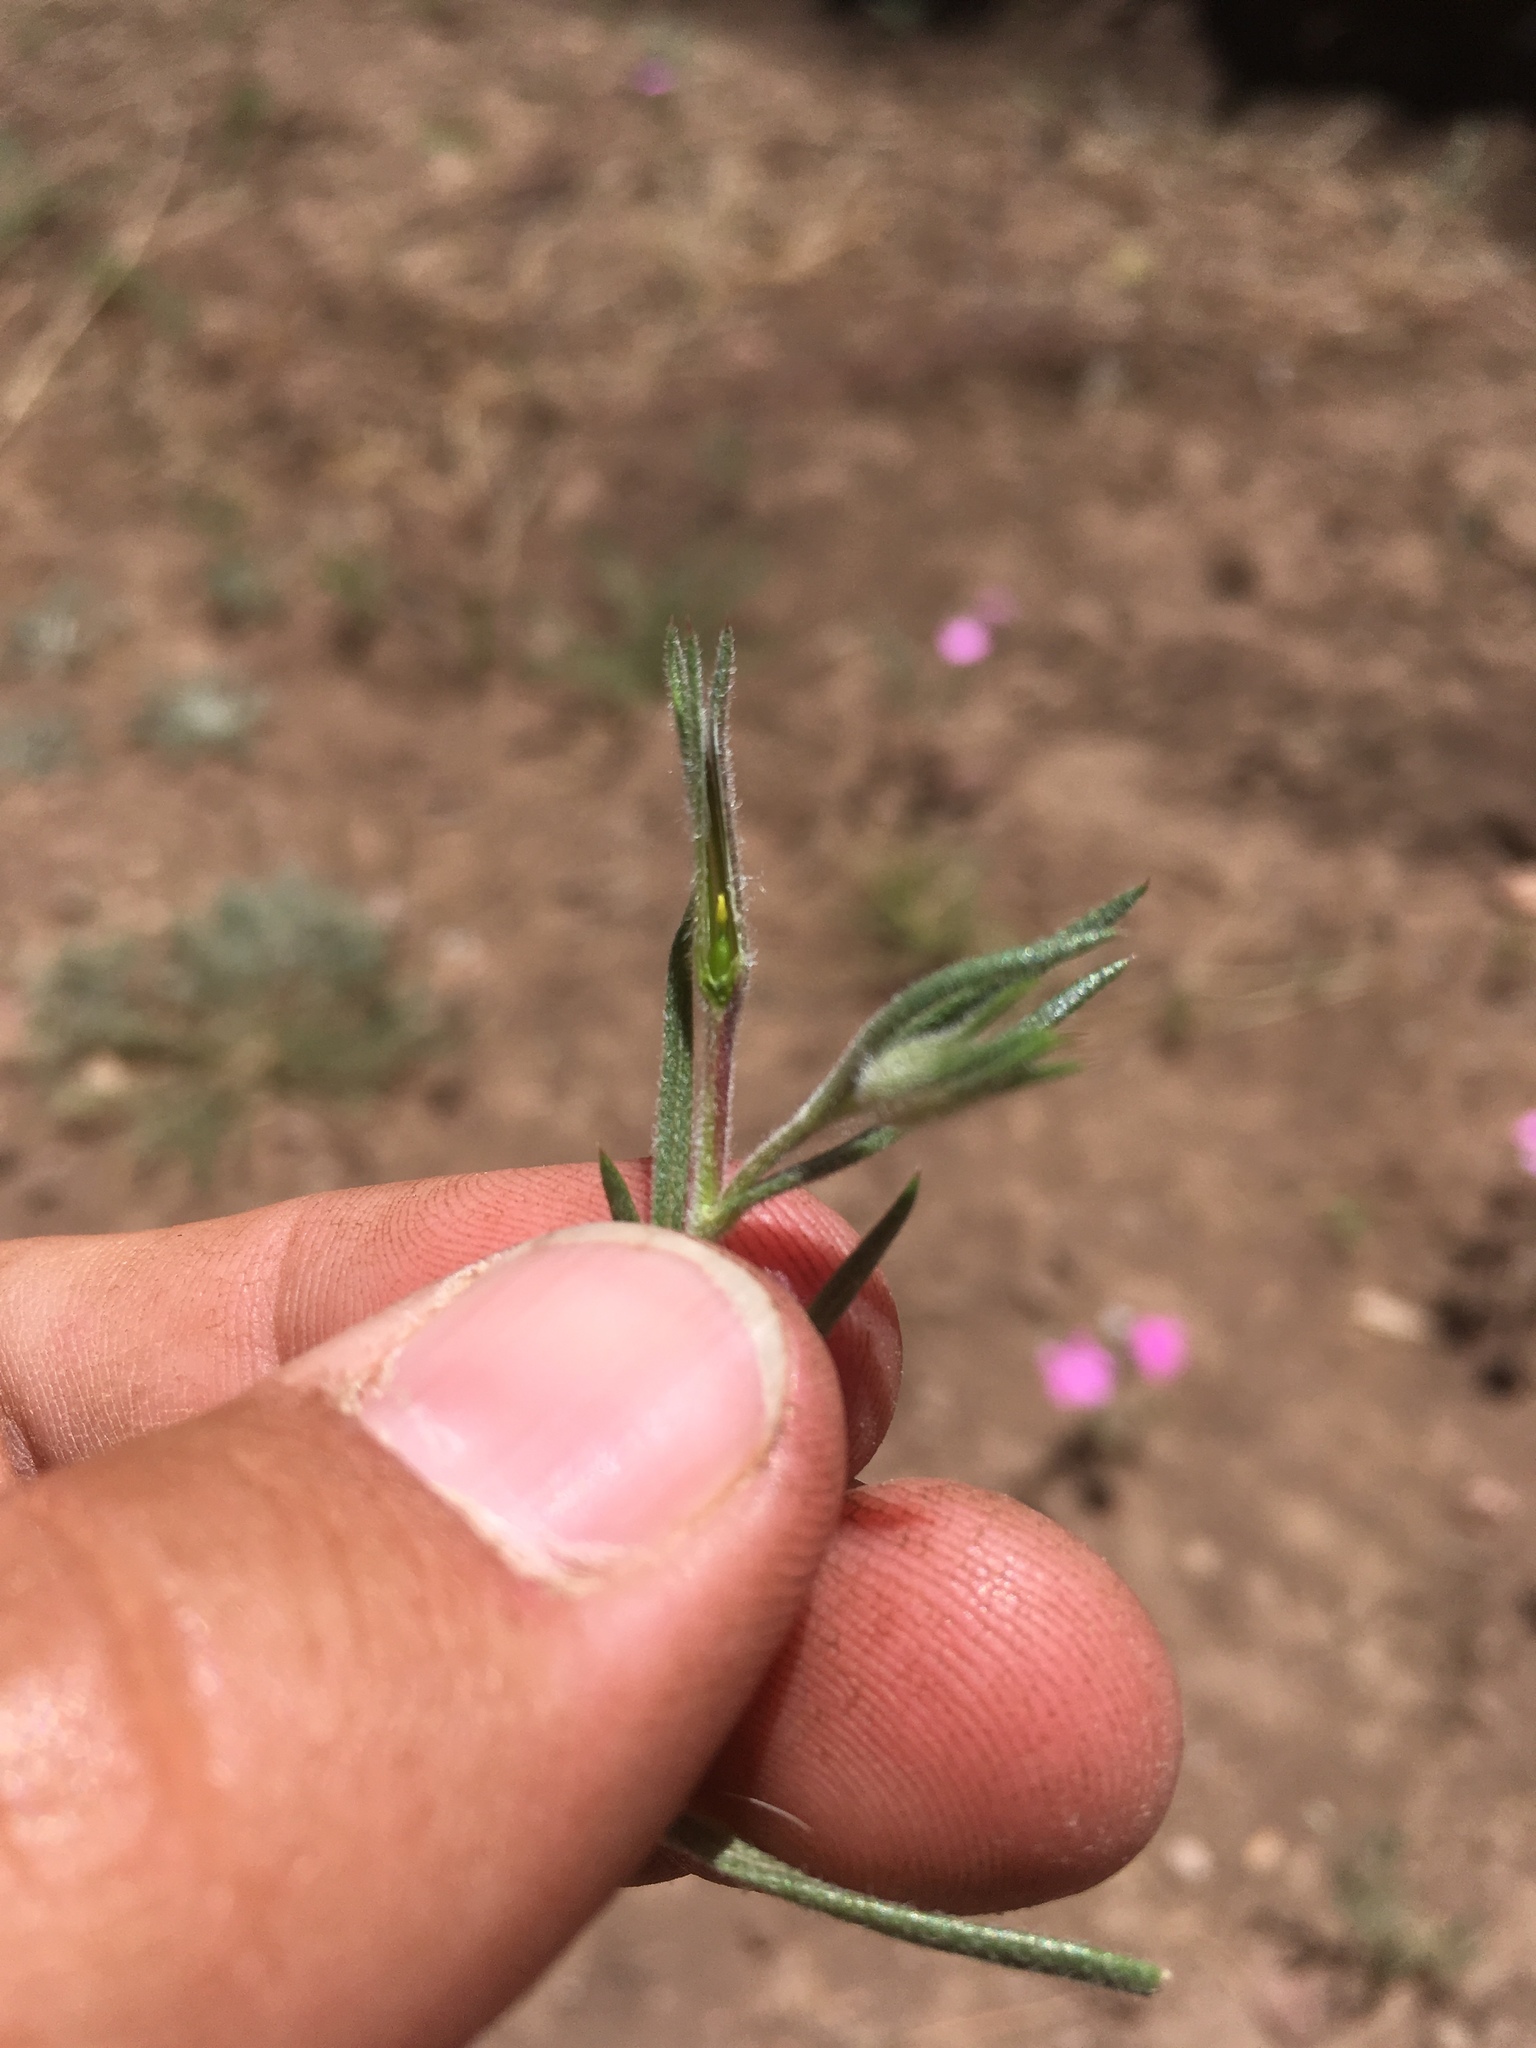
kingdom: Plantae
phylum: Tracheophyta
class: Magnoliopsida
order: Ericales
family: Polemoniaceae
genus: Phlox
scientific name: Phlox nana
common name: Santa fe phlox
